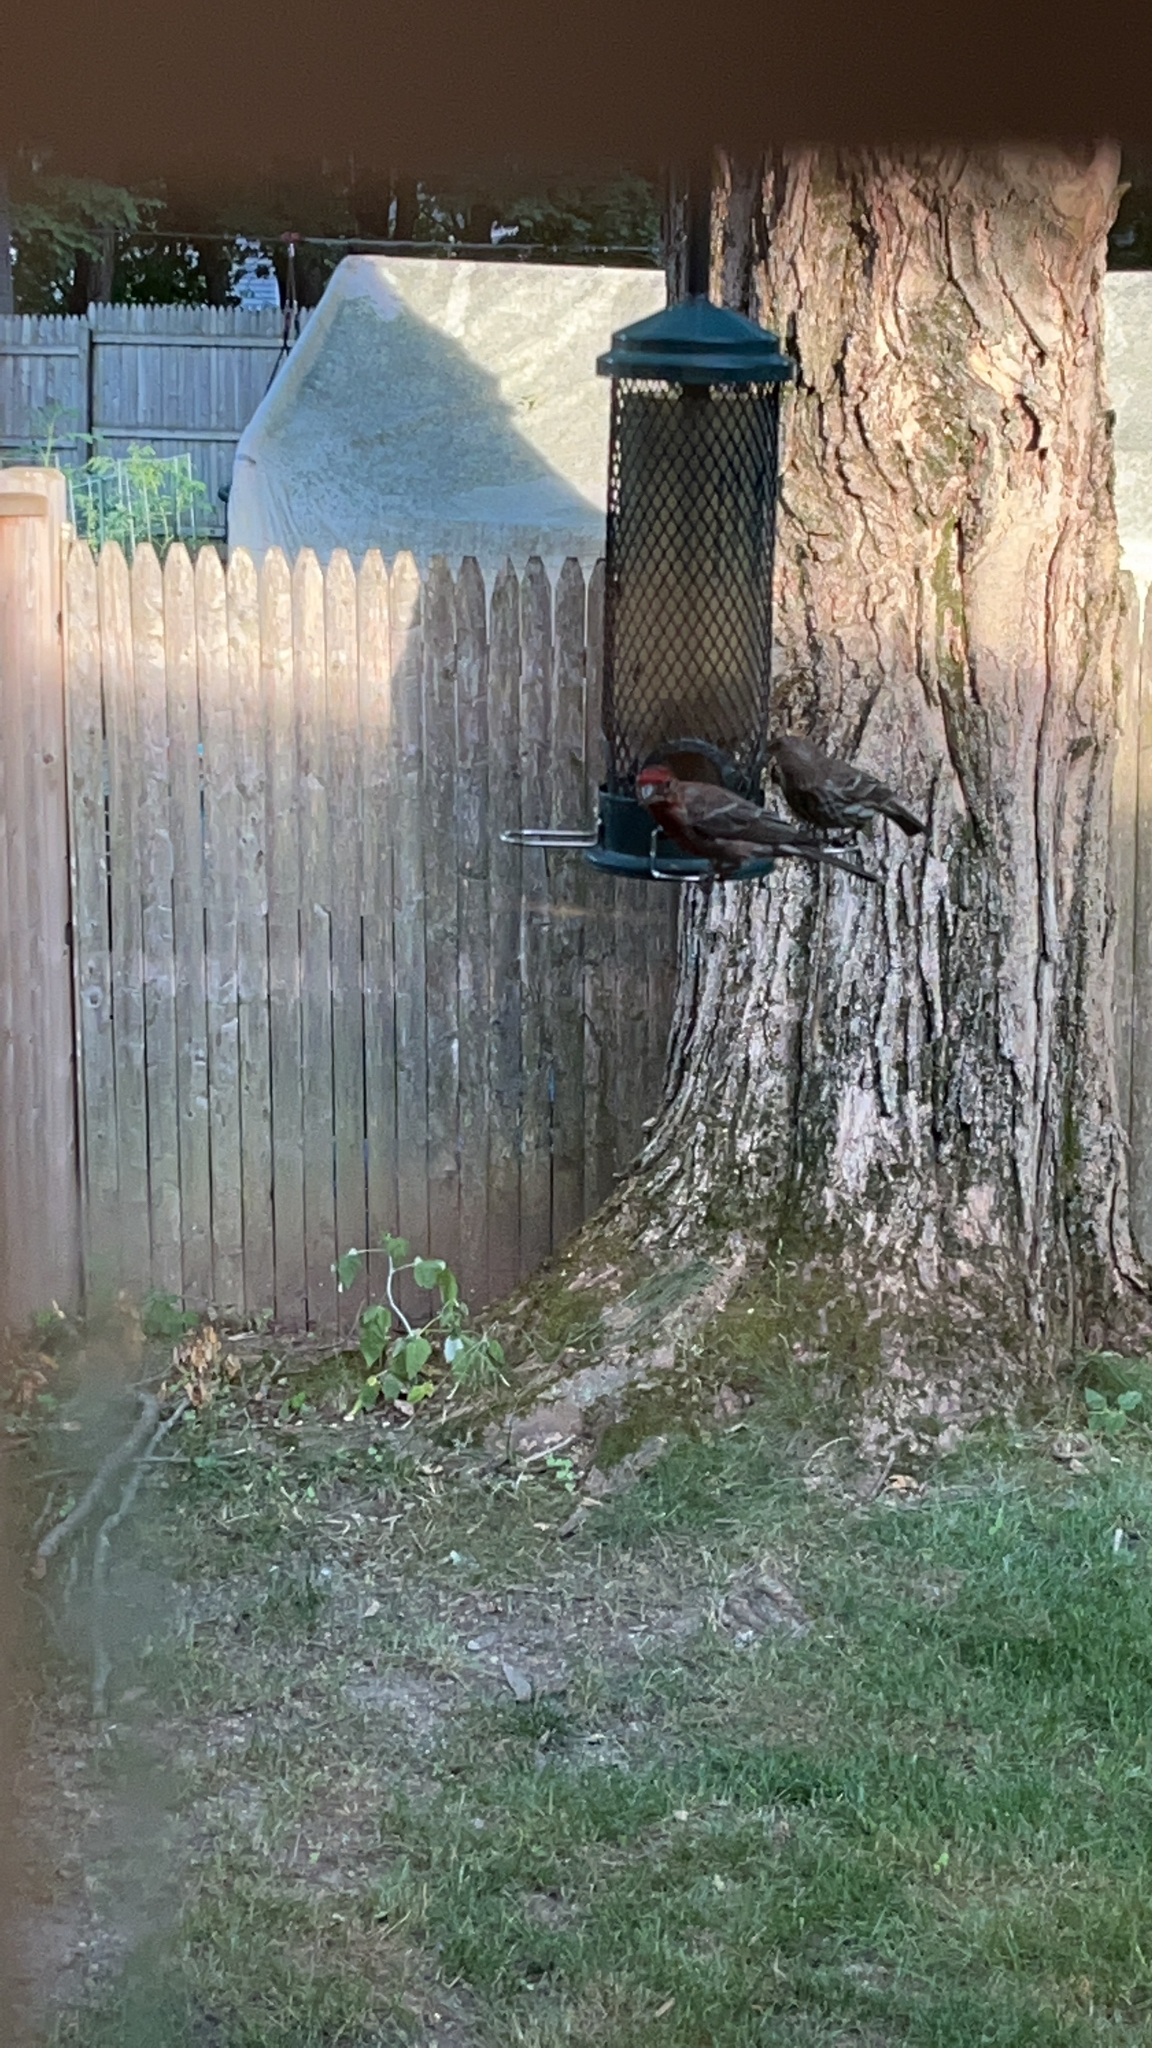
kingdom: Animalia
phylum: Chordata
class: Aves
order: Passeriformes
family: Fringillidae
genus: Haemorhous
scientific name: Haemorhous mexicanus
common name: House finch
